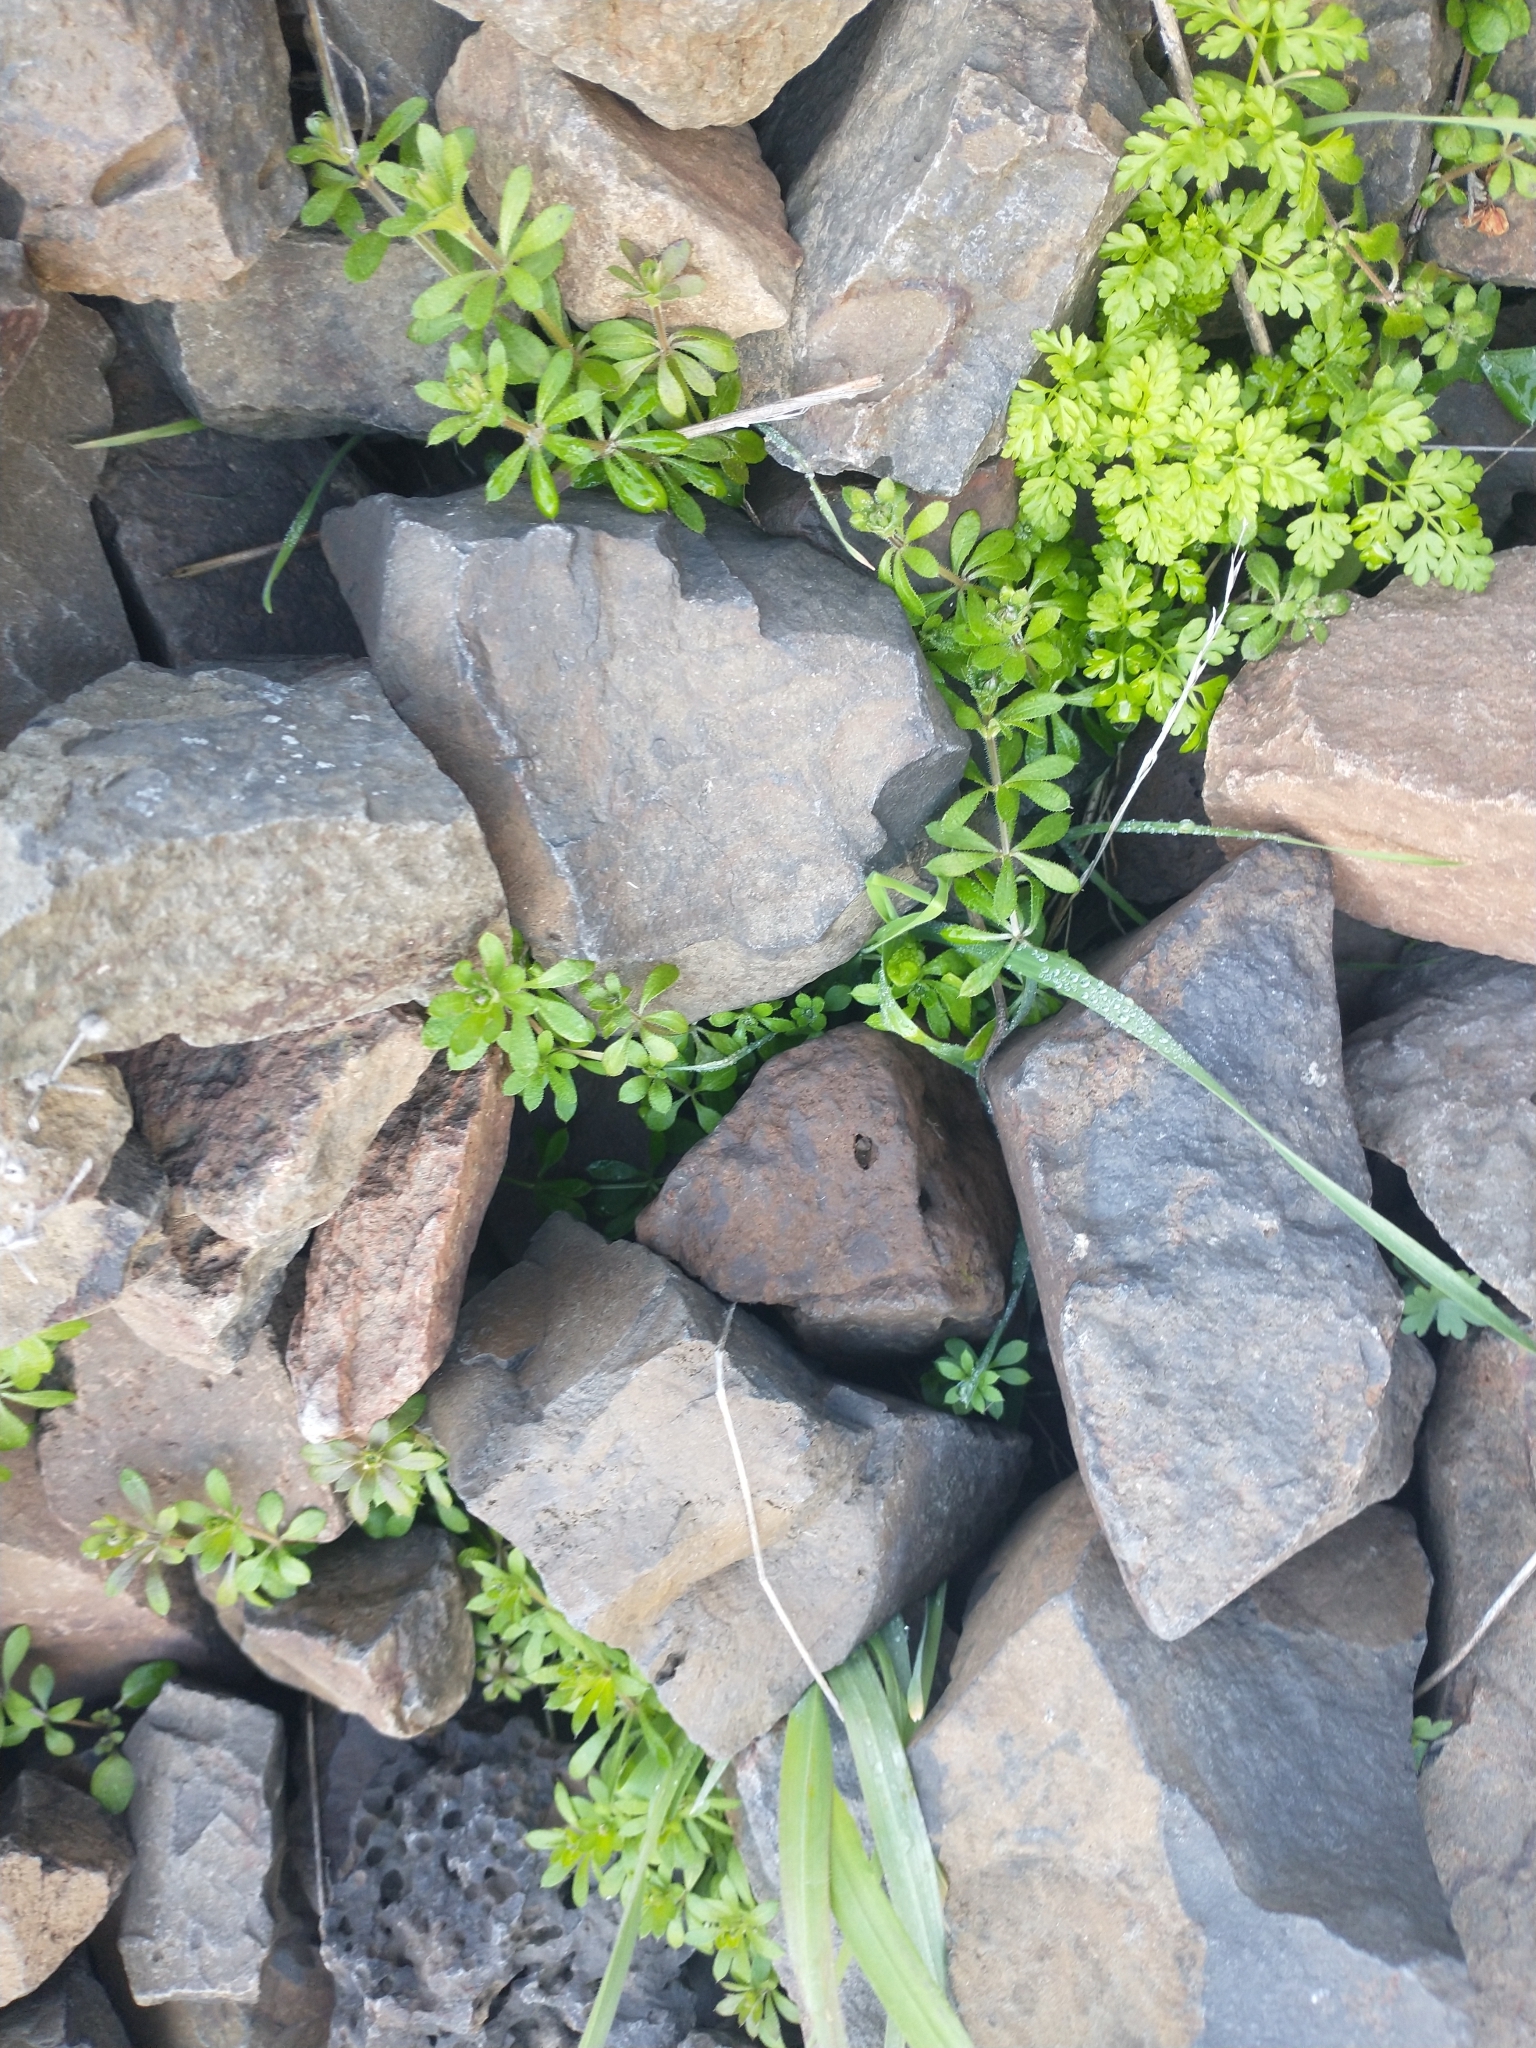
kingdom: Plantae
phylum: Tracheophyta
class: Magnoliopsida
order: Gentianales
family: Rubiaceae
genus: Galium
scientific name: Galium aparine
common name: Cleavers
